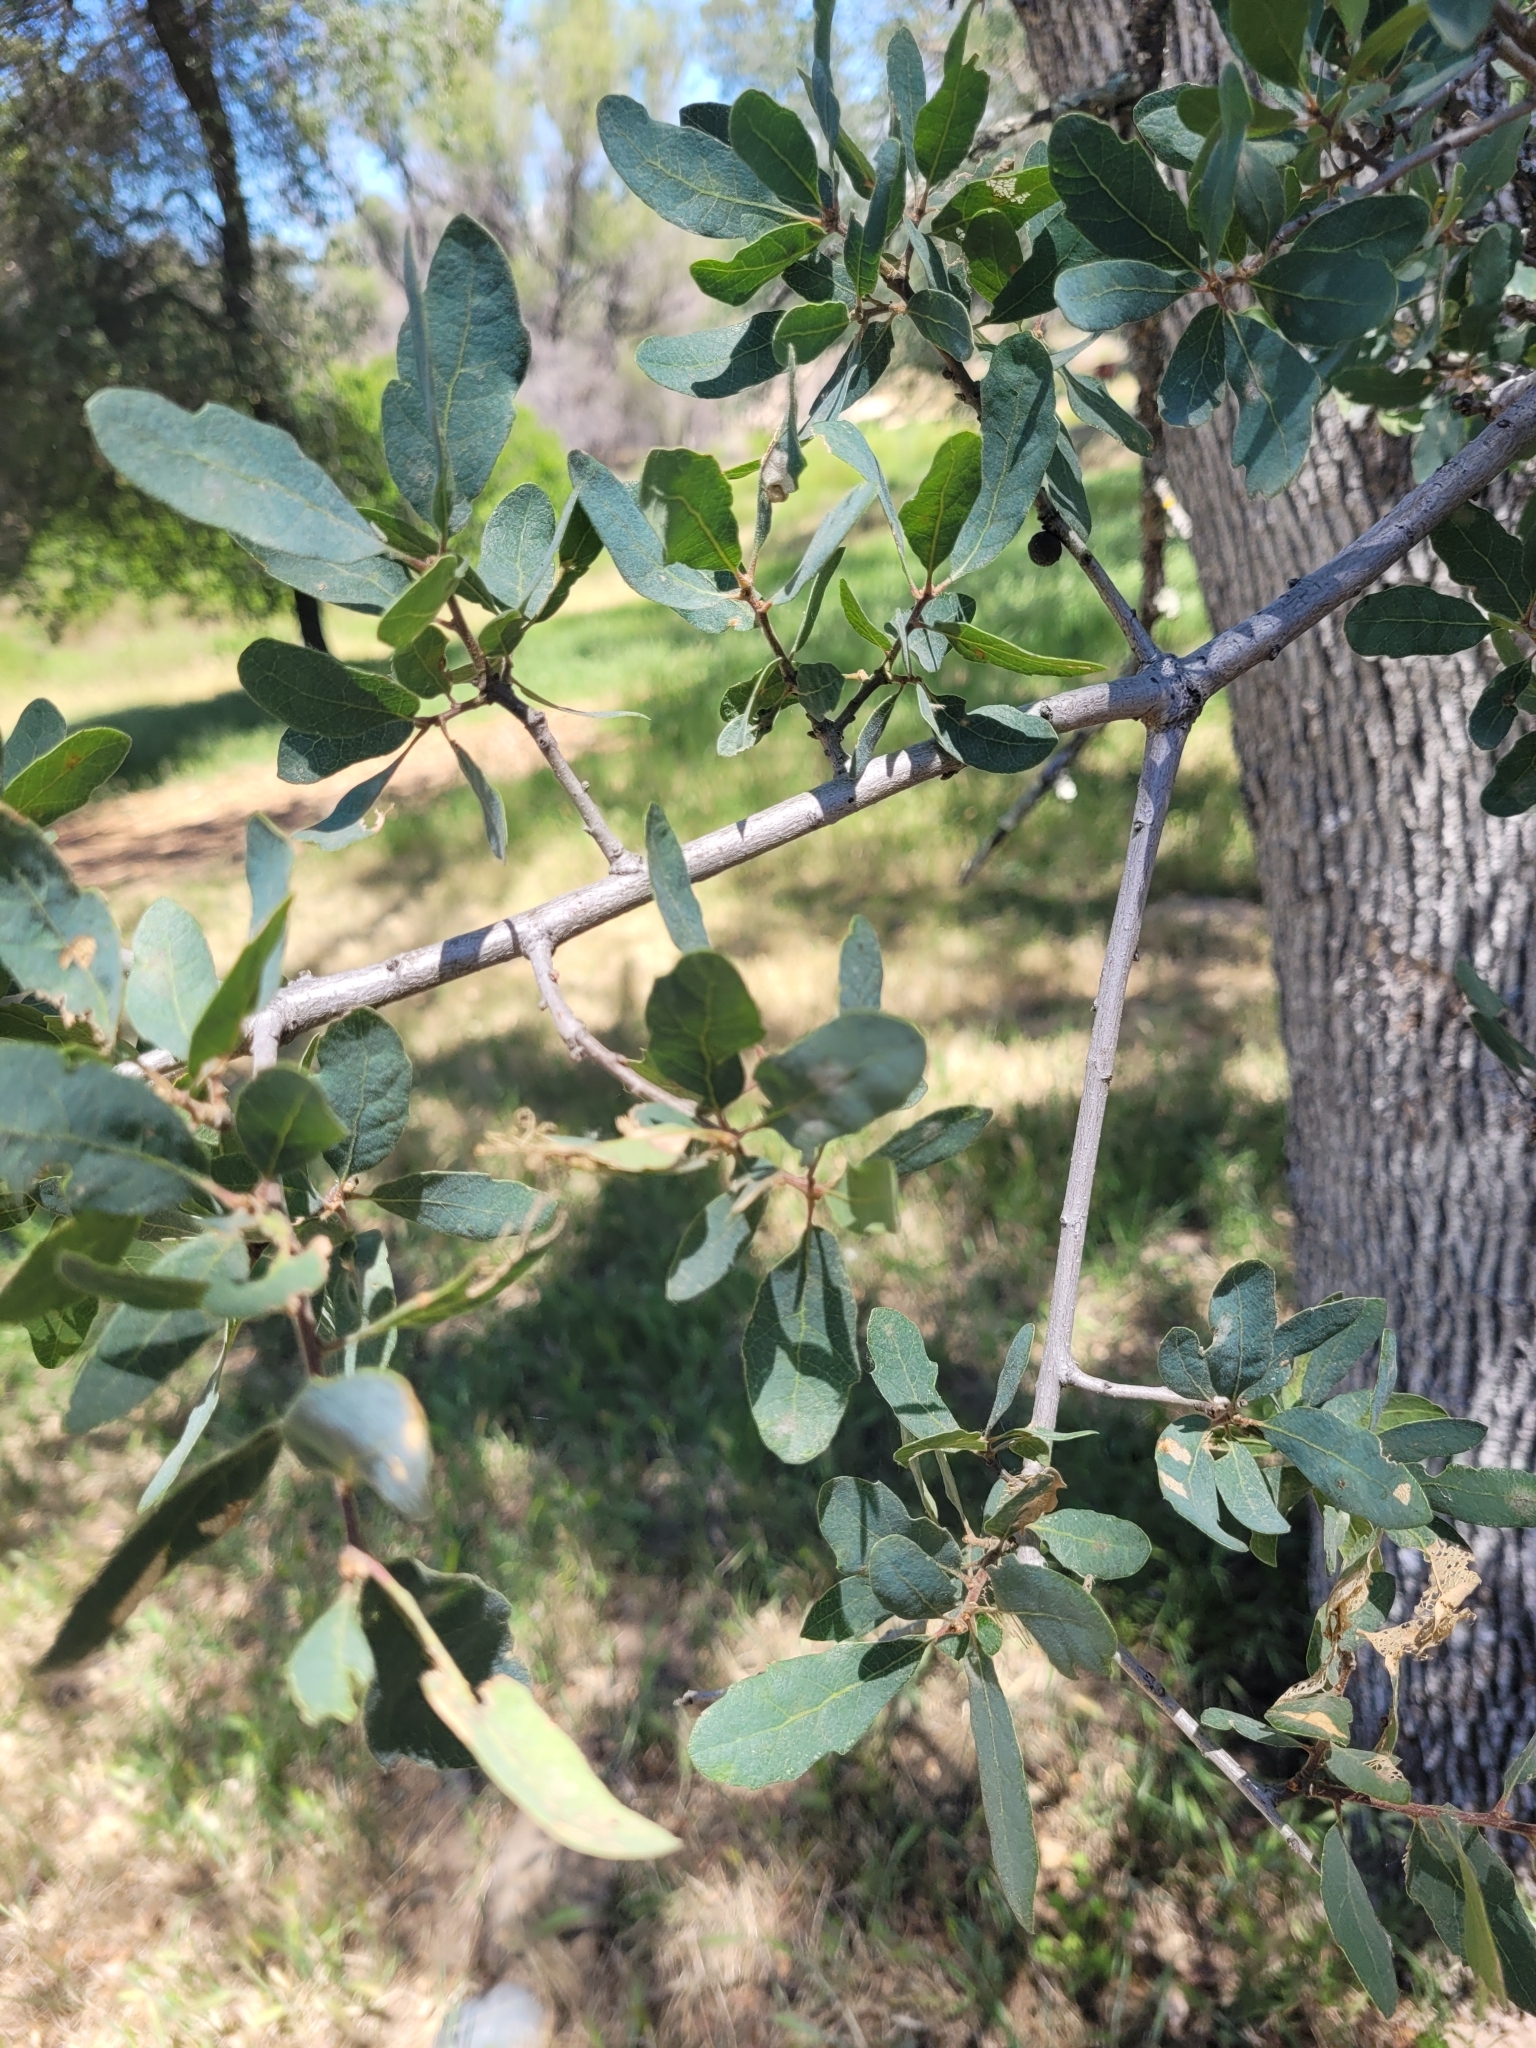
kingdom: Plantae
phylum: Tracheophyta
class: Magnoliopsida
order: Fagales
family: Fagaceae
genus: Quercus
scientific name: Quercus douglasii
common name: Blue oak
